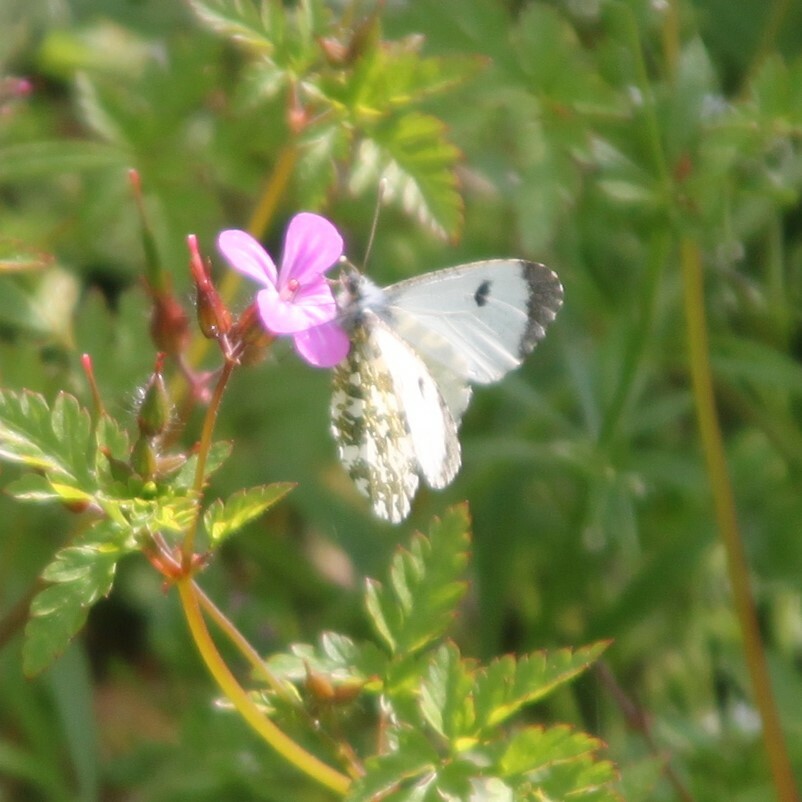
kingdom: Animalia
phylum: Arthropoda
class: Insecta
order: Lepidoptera
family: Pieridae
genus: Anthocharis
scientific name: Anthocharis cardamines
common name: Orange-tip
